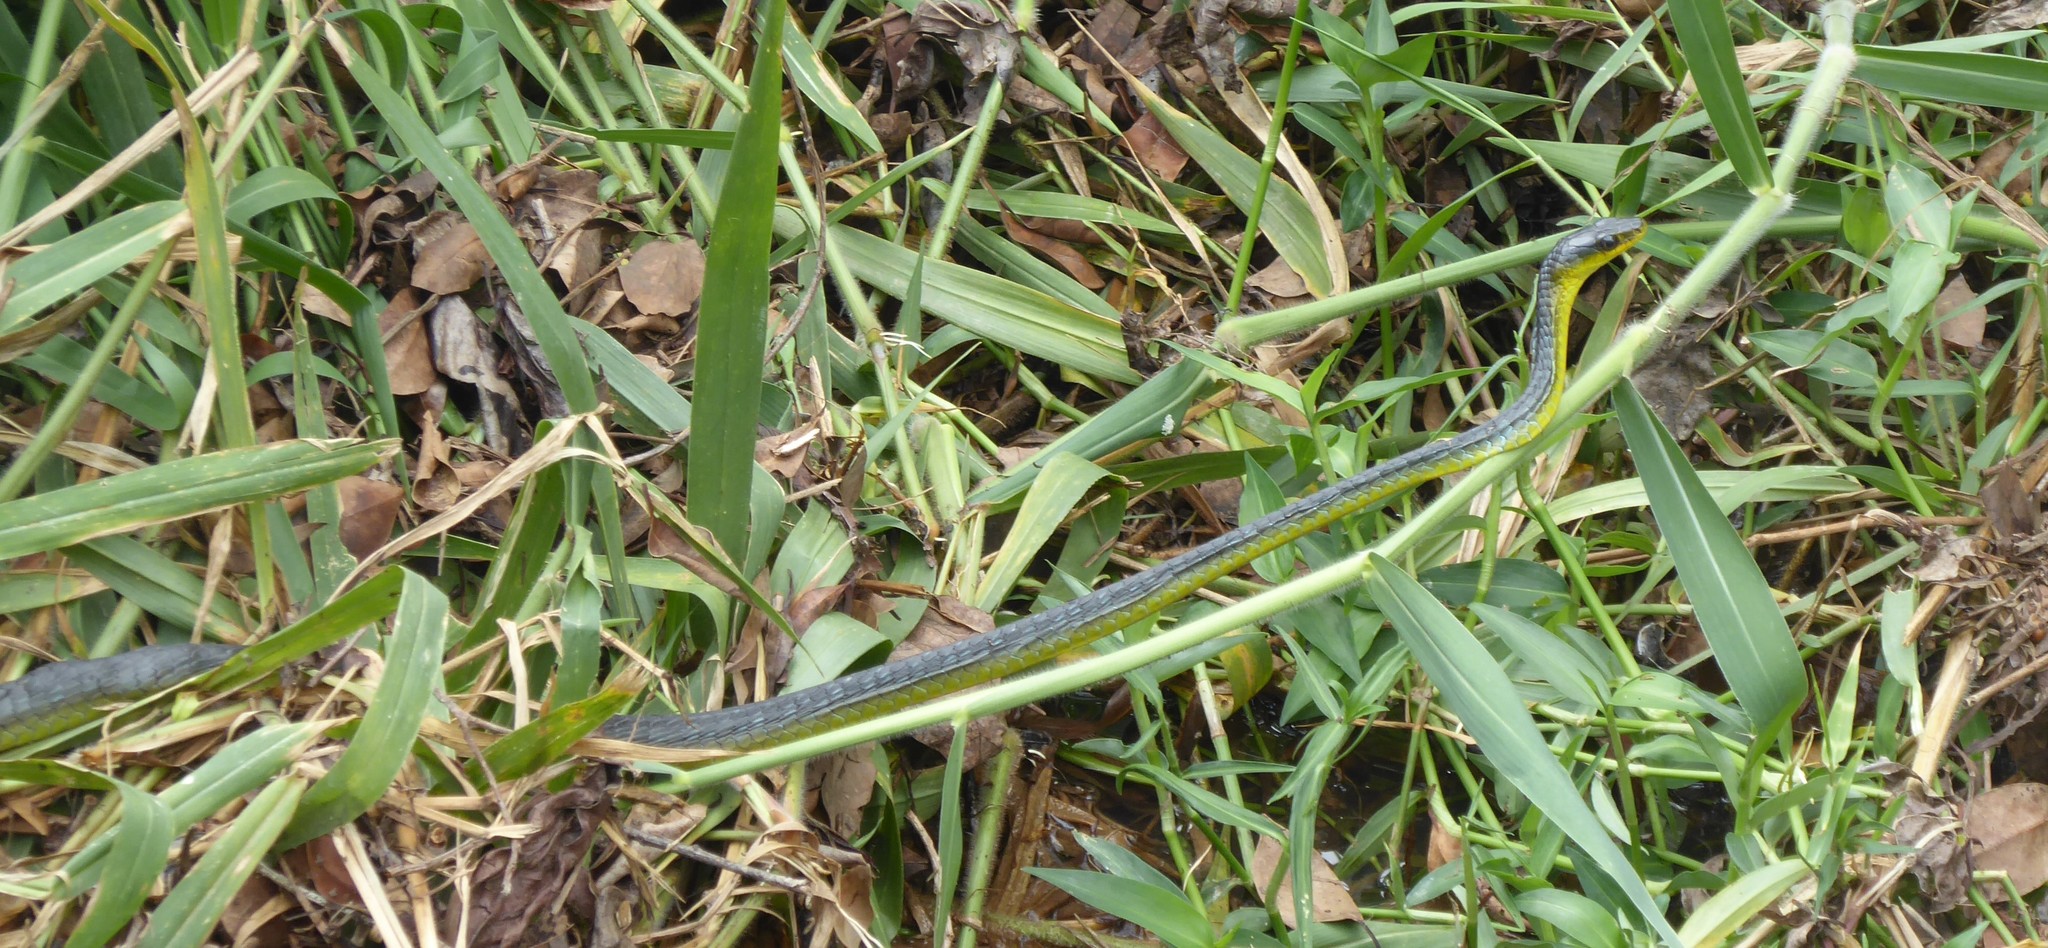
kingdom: Animalia
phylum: Chordata
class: Squamata
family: Colubridae
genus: Dendrelaphis
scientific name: Dendrelaphis punctulatus
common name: Common tree snake
